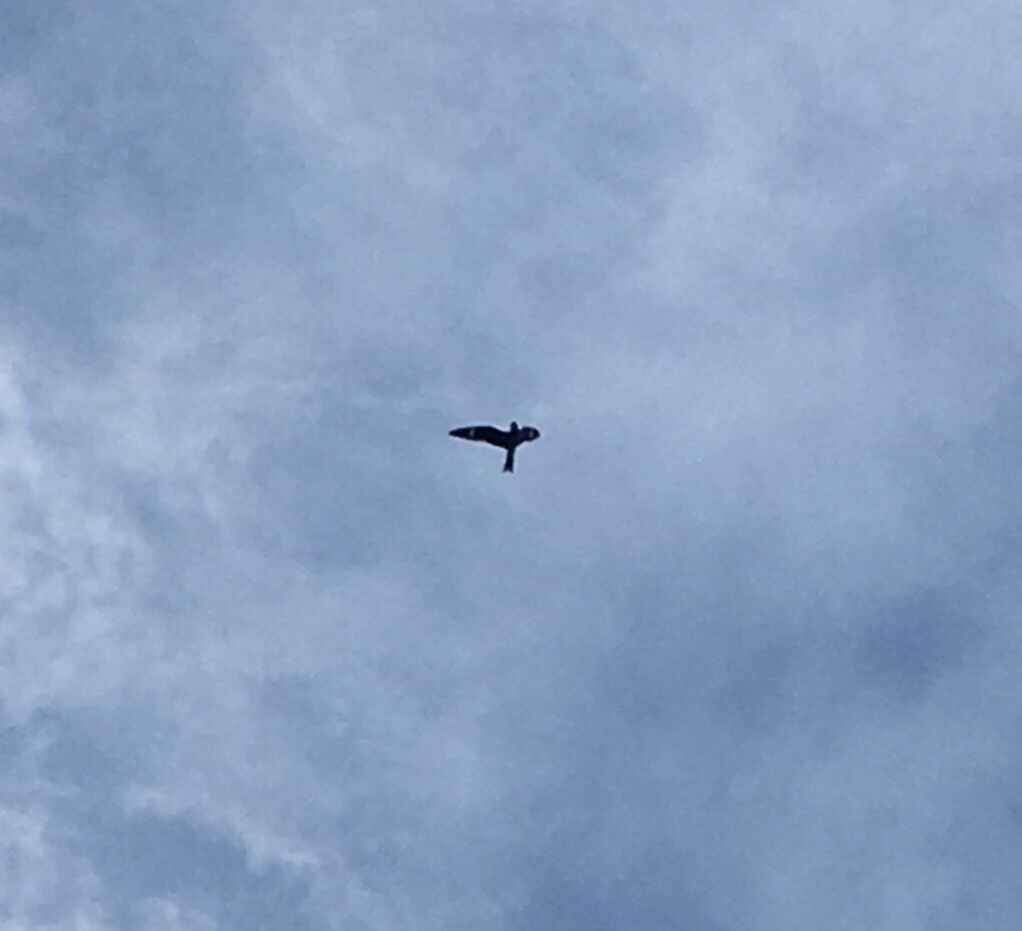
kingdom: Animalia
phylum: Chordata
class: Aves
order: Caprimulgiformes
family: Caprimulgidae
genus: Chordeiles
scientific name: Chordeiles minor
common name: Common nighthawk
